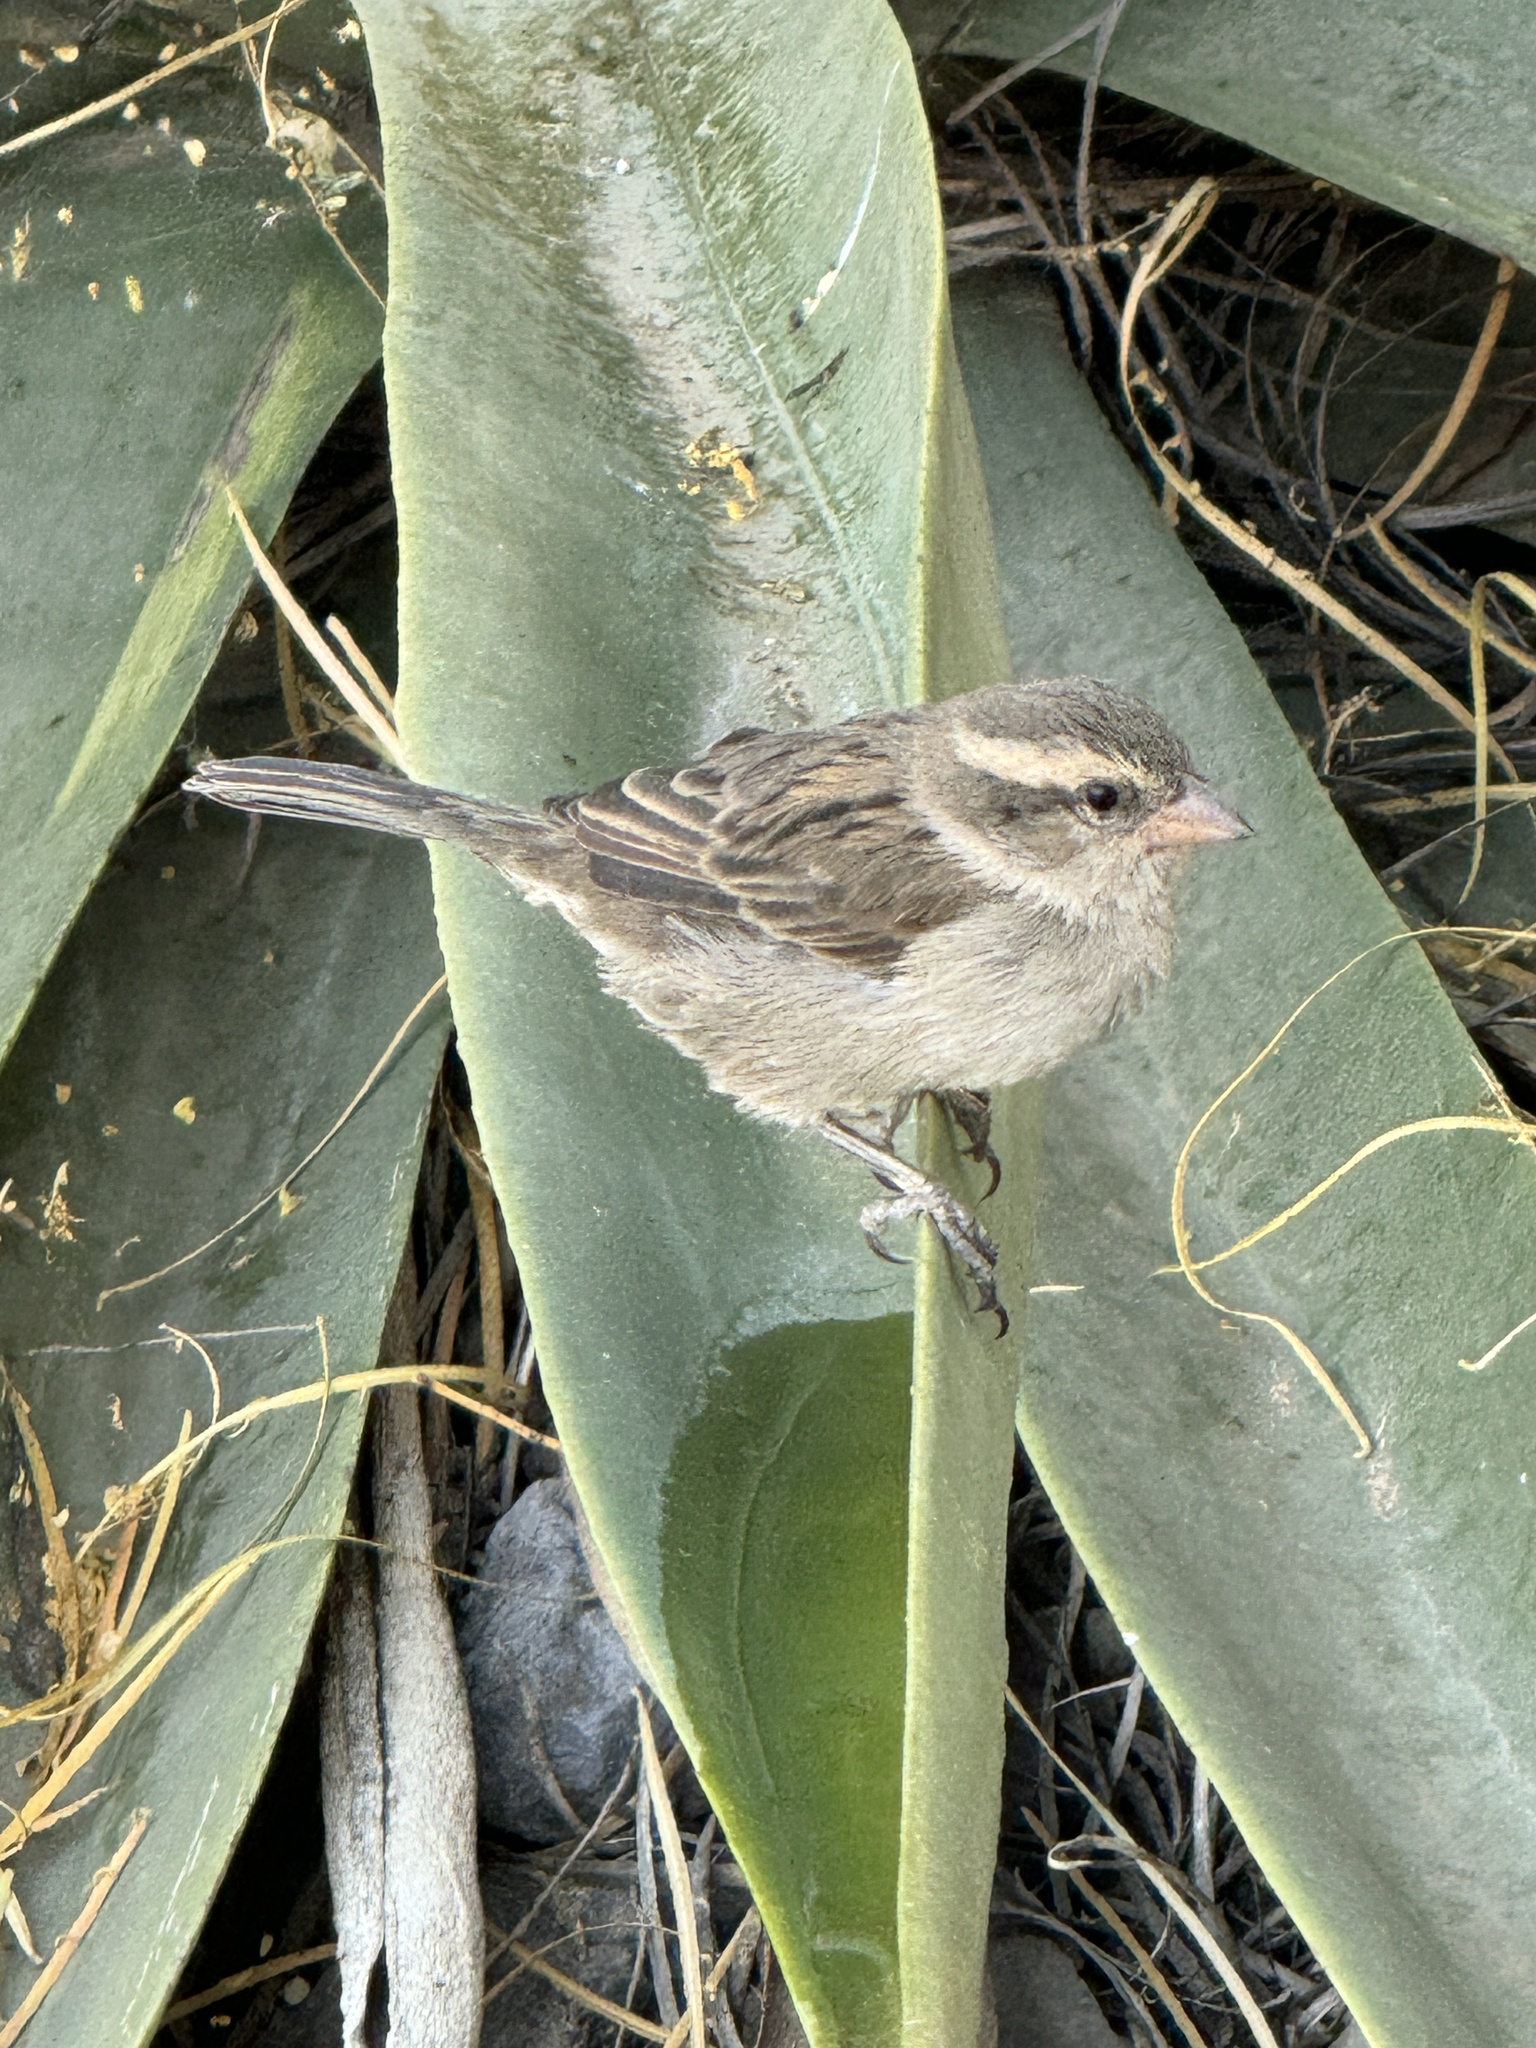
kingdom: Animalia
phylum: Chordata
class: Aves
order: Passeriformes
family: Passeridae
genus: Passer
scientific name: Passer iagoensis
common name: Iago sparrow
